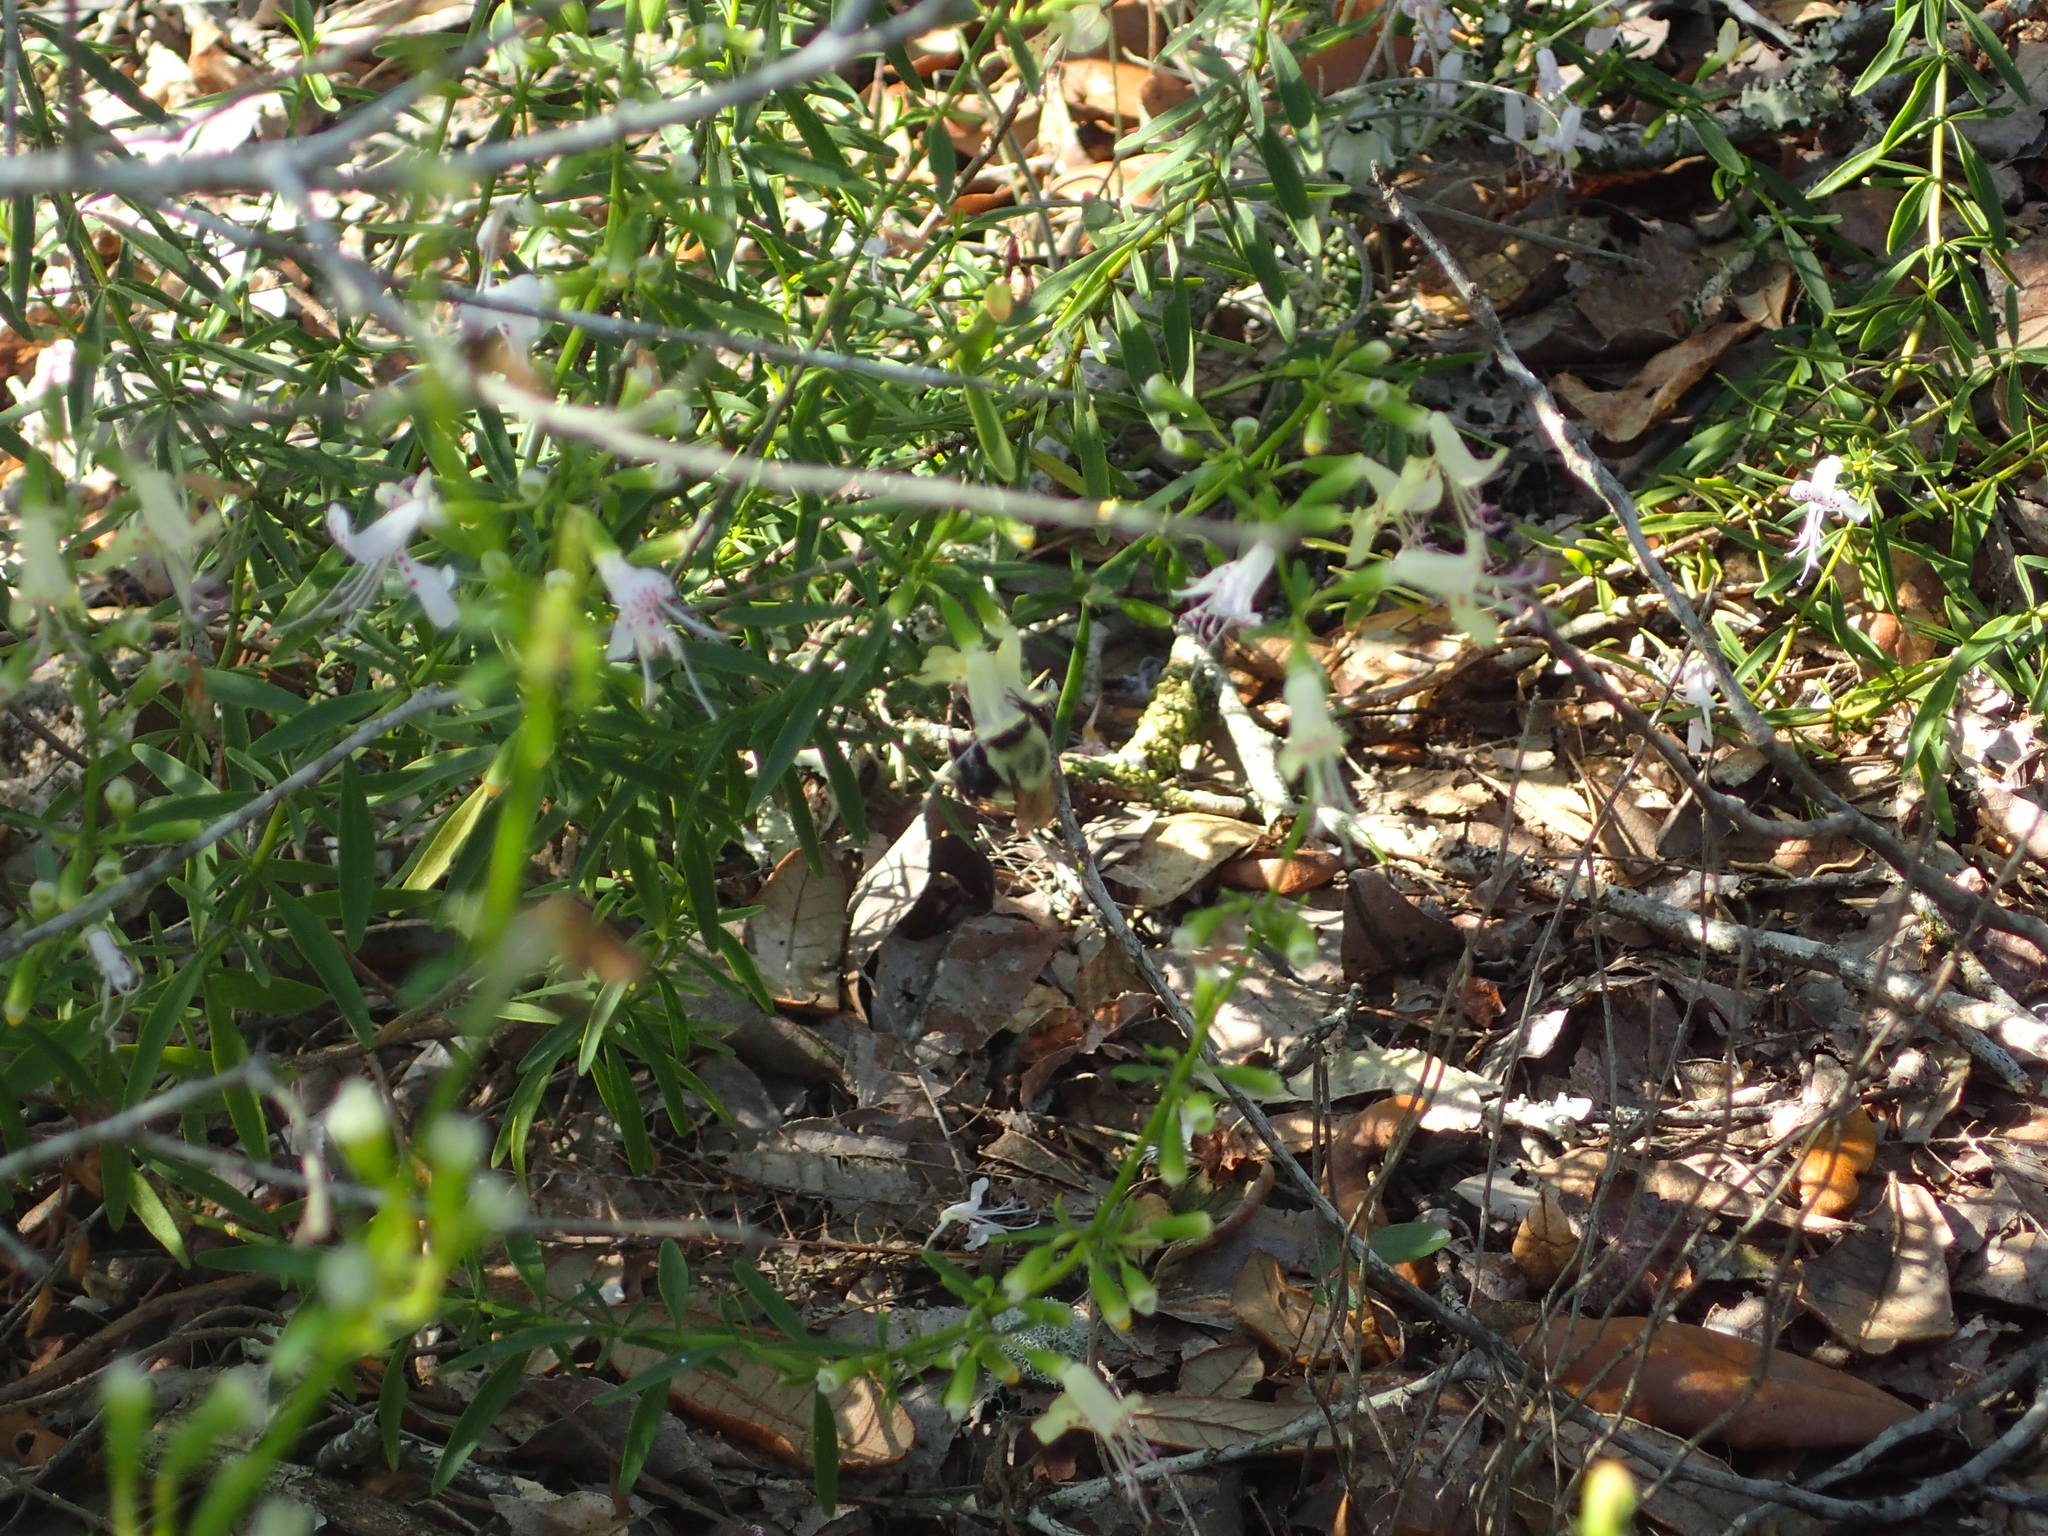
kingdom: Plantae
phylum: Tracheophyta
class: Magnoliopsida
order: Lamiales
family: Lamiaceae
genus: Dicerandra
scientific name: Dicerandra frutescens
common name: Scrub-mint
